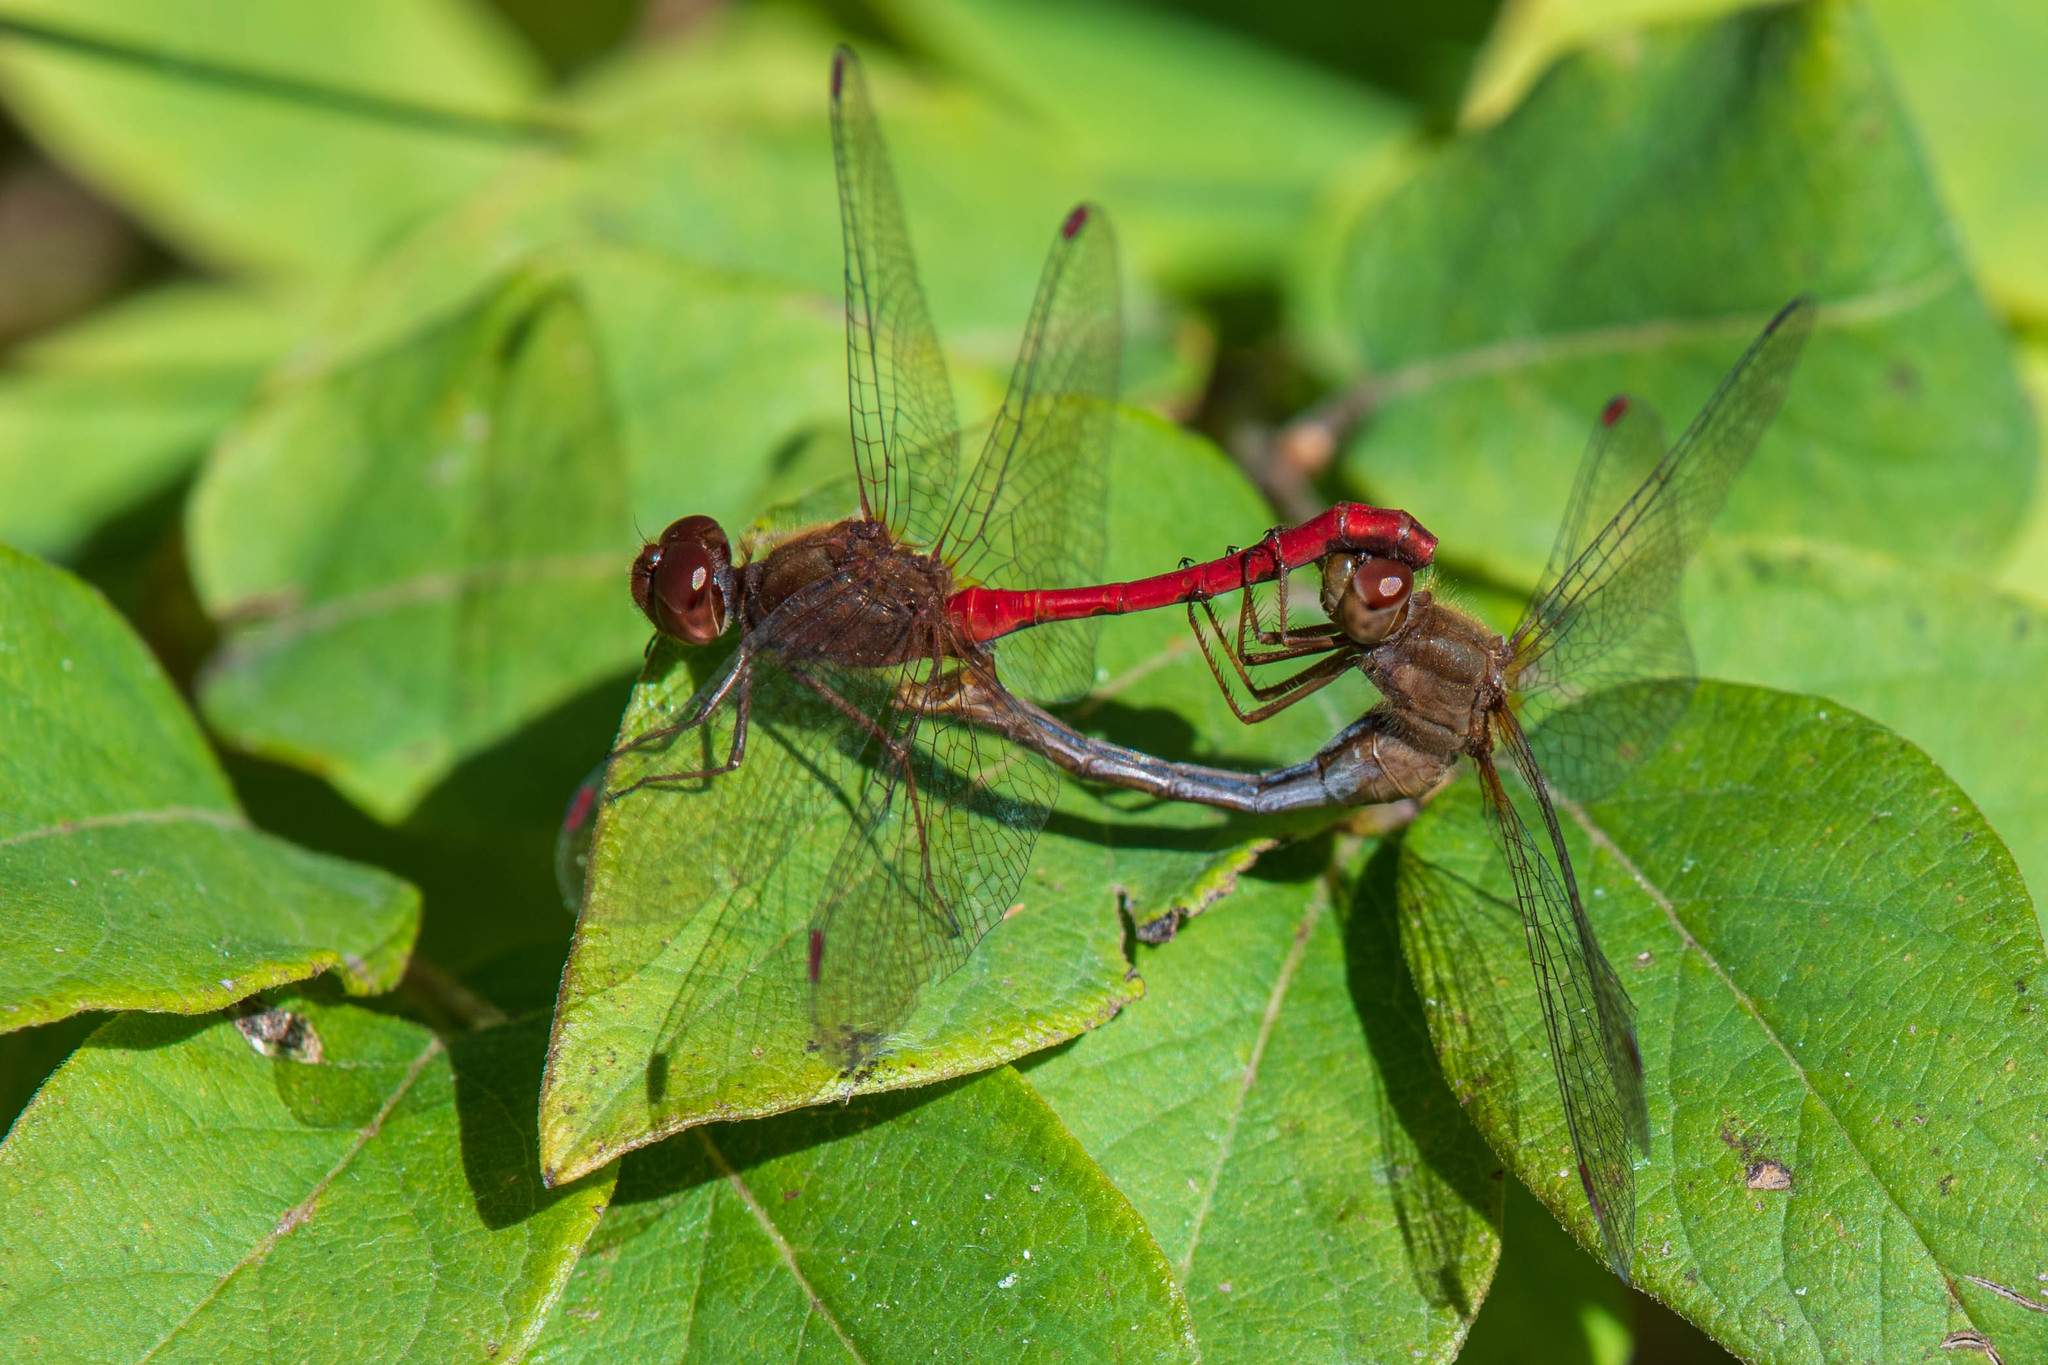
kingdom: Animalia
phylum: Arthropoda
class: Insecta
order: Odonata
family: Libellulidae
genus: Sympetrum
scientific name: Sympetrum vicinum
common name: Autumn meadowhawk
